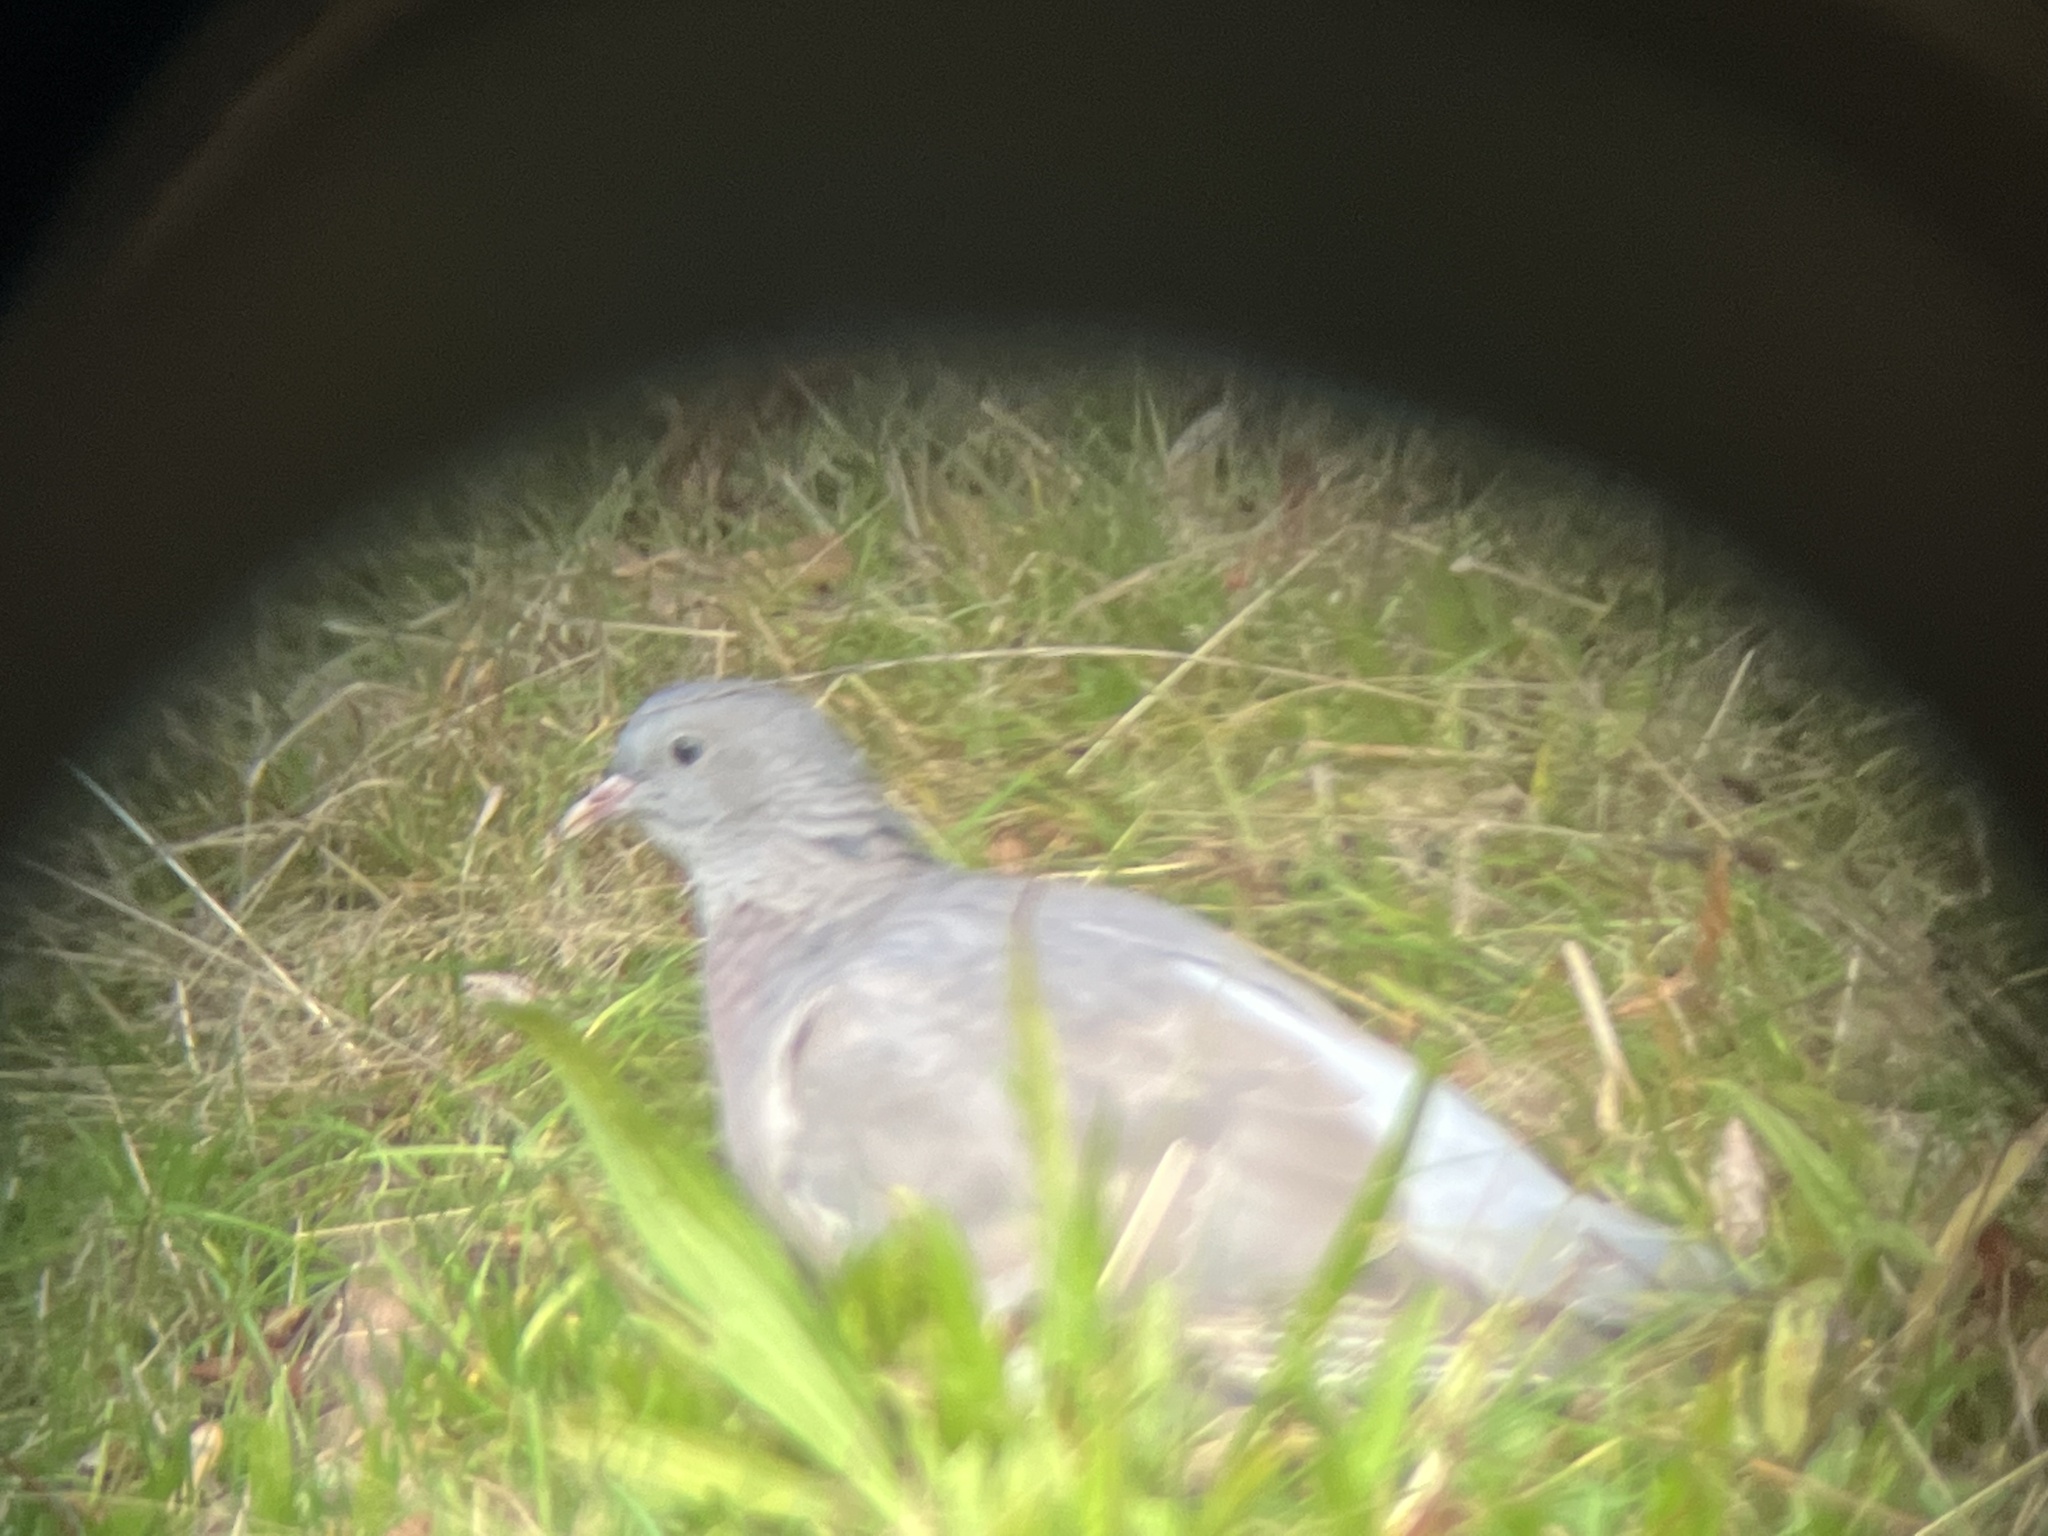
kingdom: Animalia
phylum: Chordata
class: Aves
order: Columbiformes
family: Columbidae
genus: Columba
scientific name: Columba palumbus
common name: Common wood pigeon
